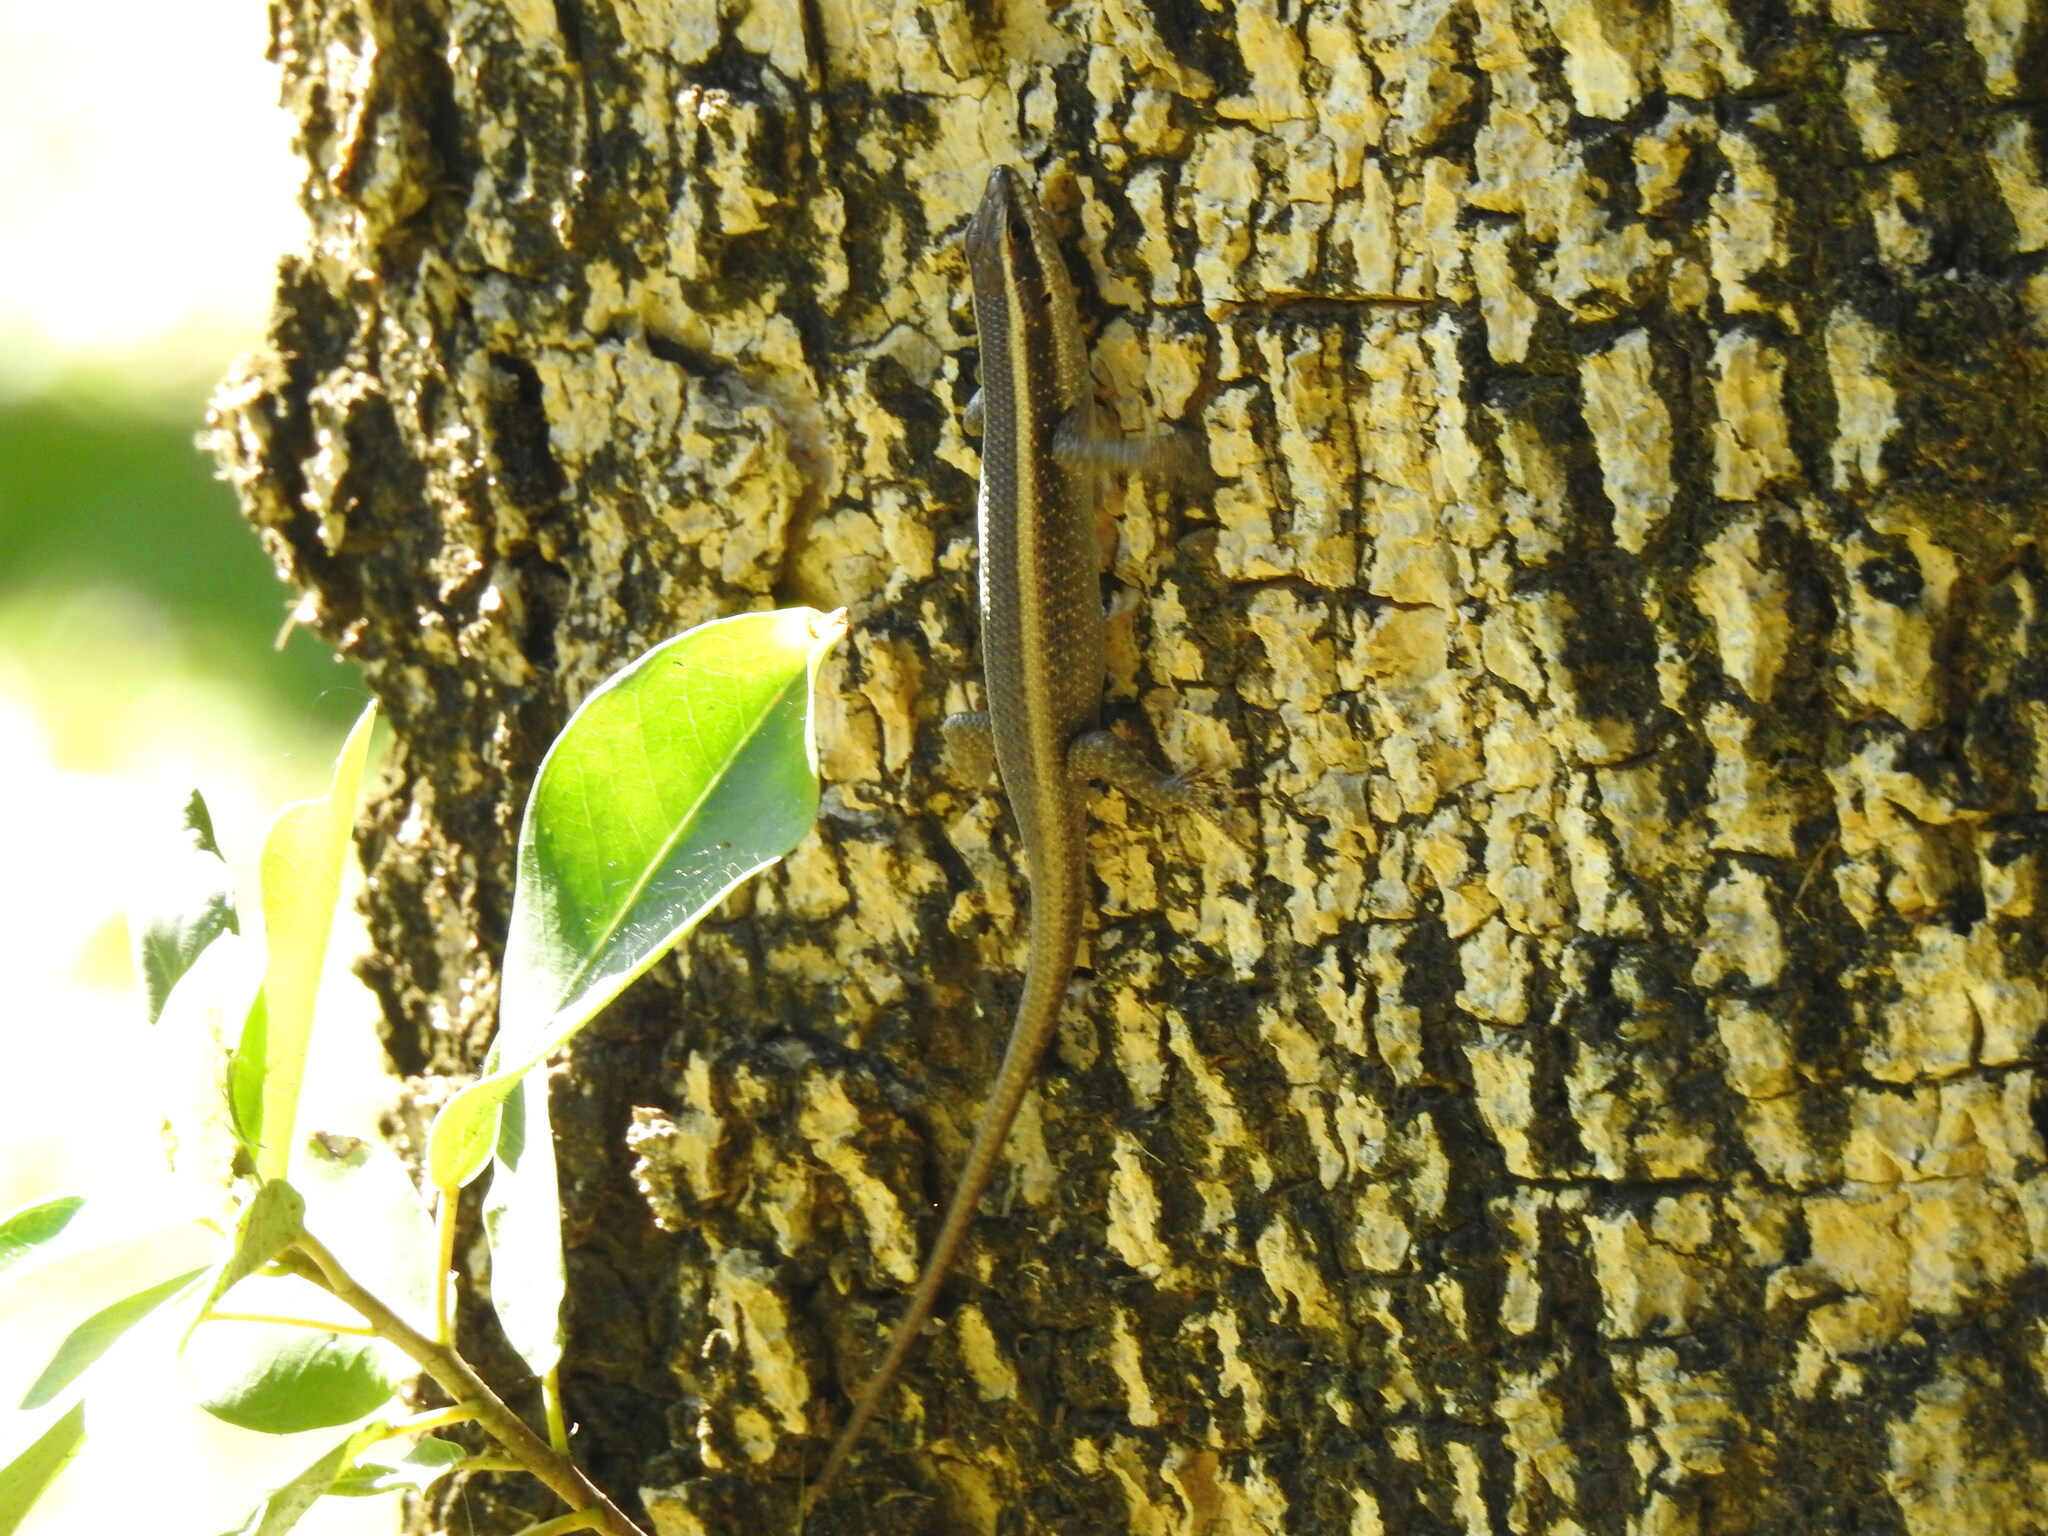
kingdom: Animalia
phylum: Chordata
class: Squamata
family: Scincidae
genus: Trachylepis
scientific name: Trachylepis striata
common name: African striped mabuya
